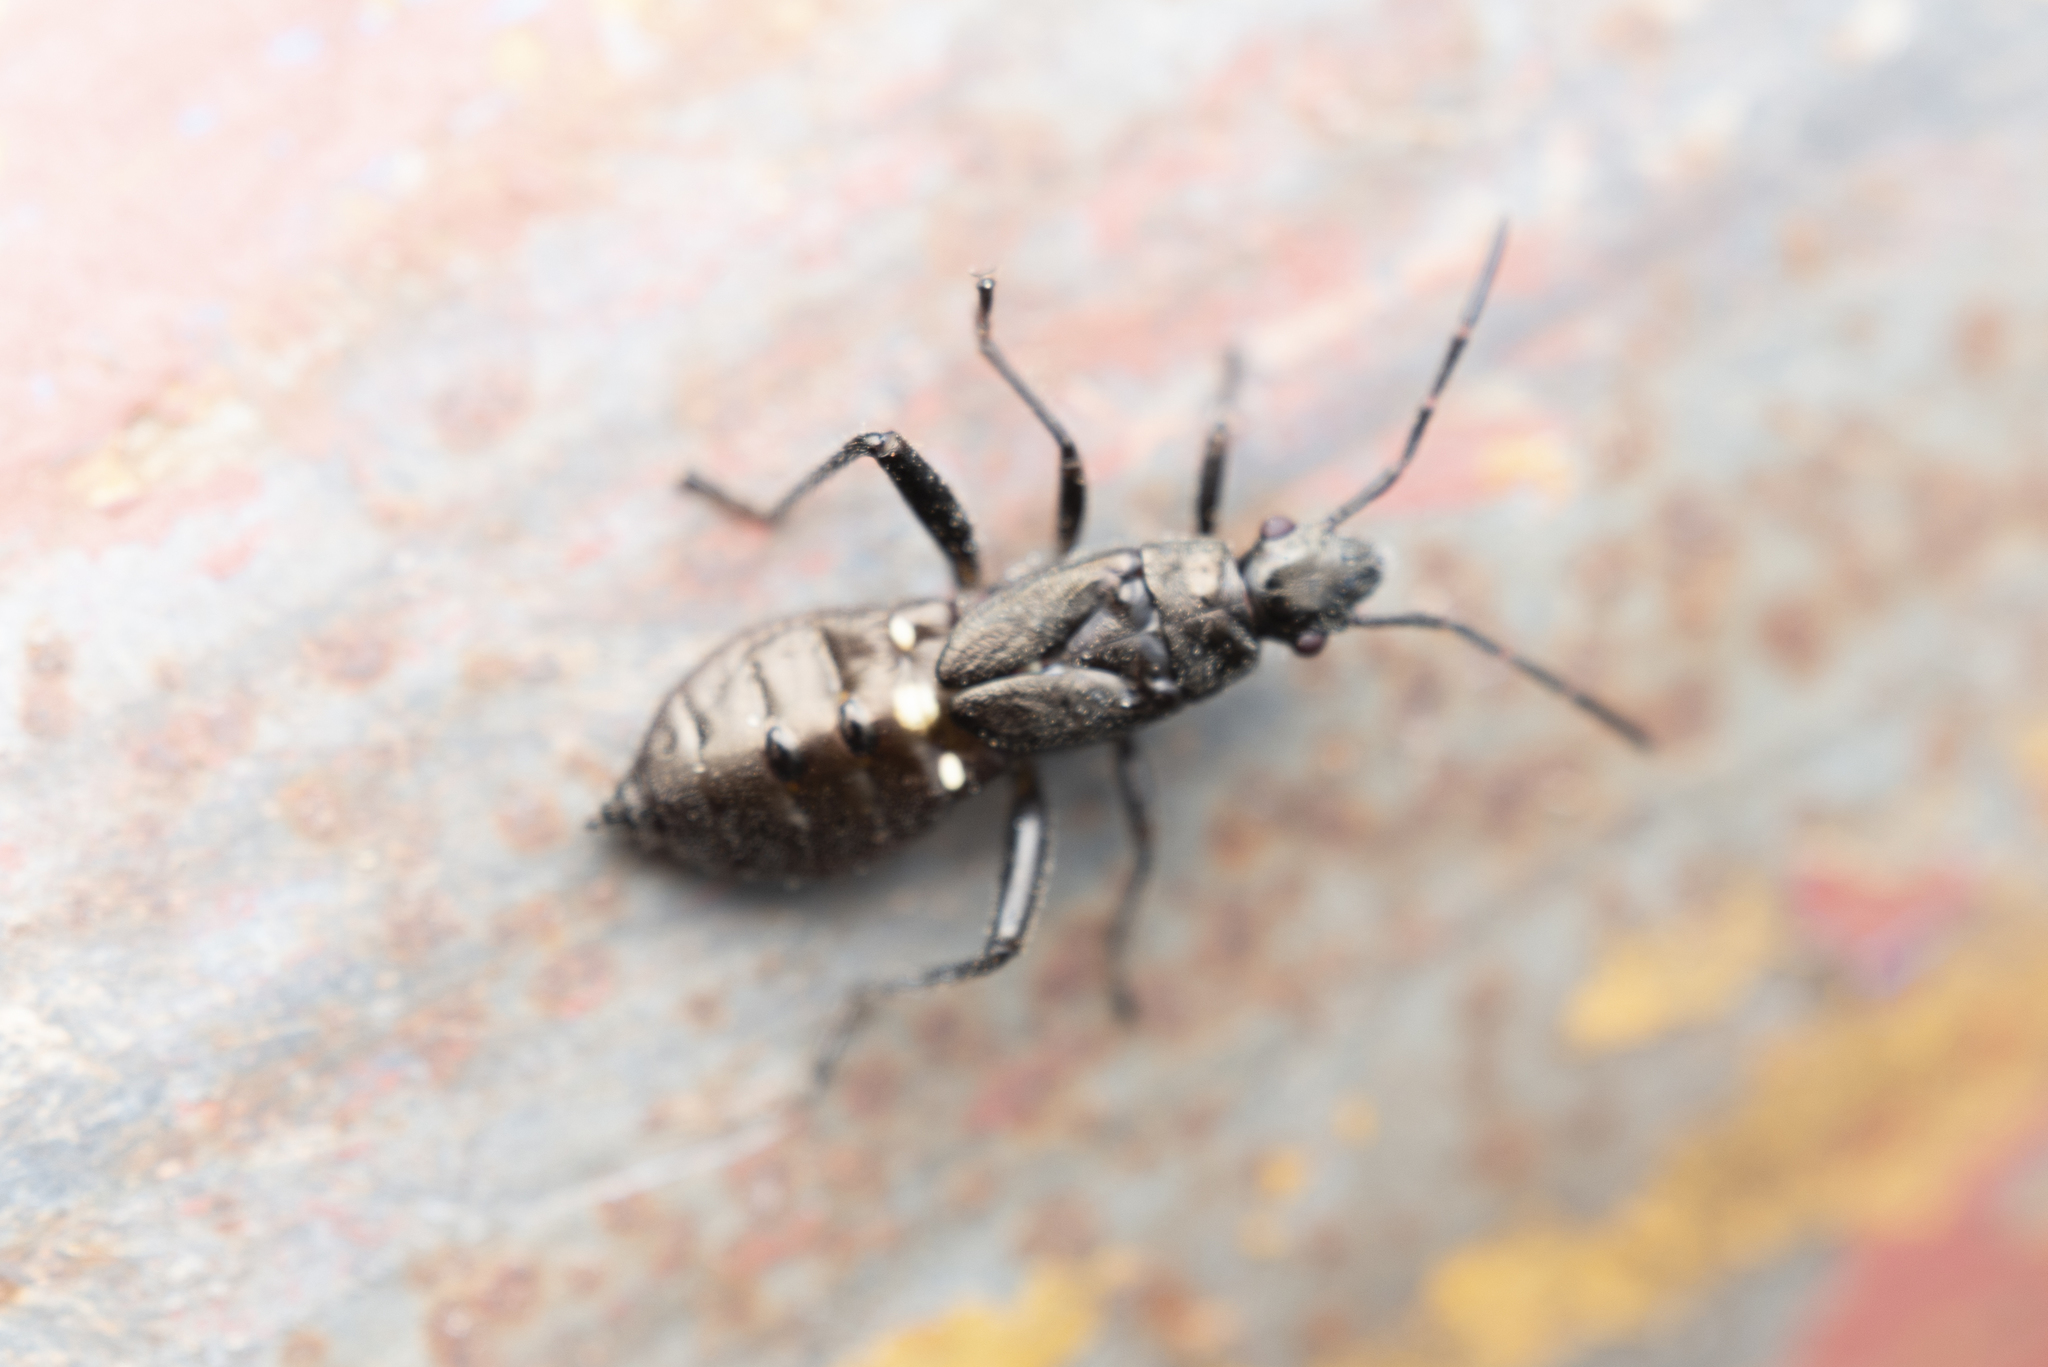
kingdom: Animalia
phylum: Arthropoda
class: Insecta
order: Hemiptera
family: Alydidae
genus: Daclera
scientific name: Daclera levana
